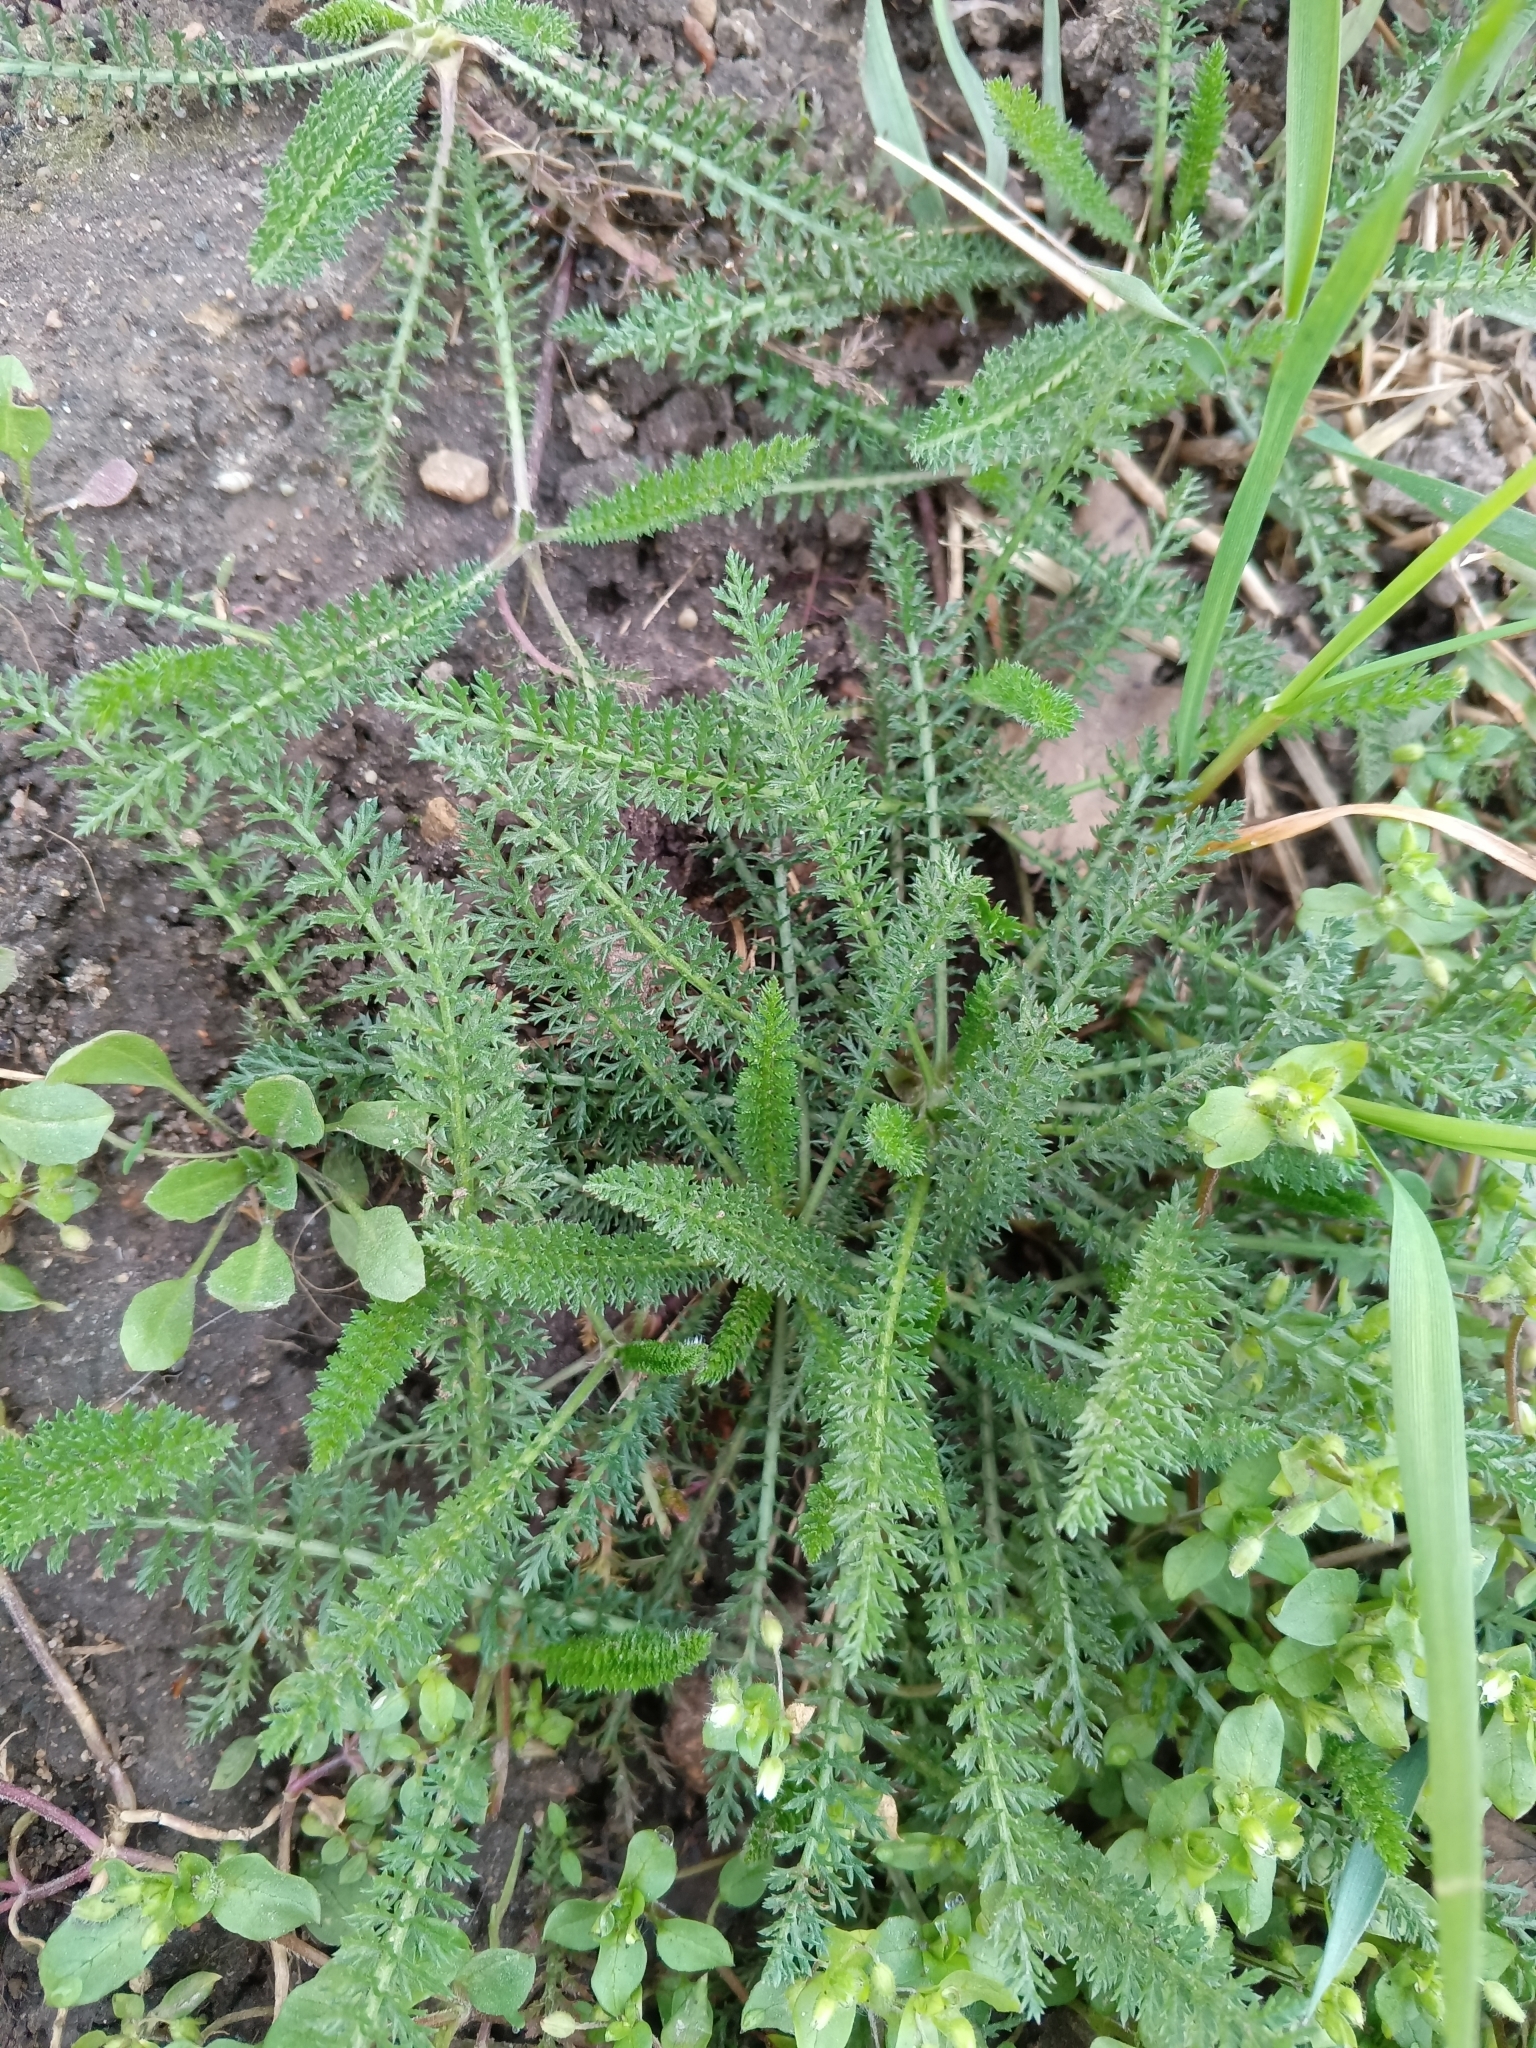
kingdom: Plantae
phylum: Tracheophyta
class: Magnoliopsida
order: Asterales
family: Asteraceae
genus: Achillea
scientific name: Achillea millefolium
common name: Yarrow
